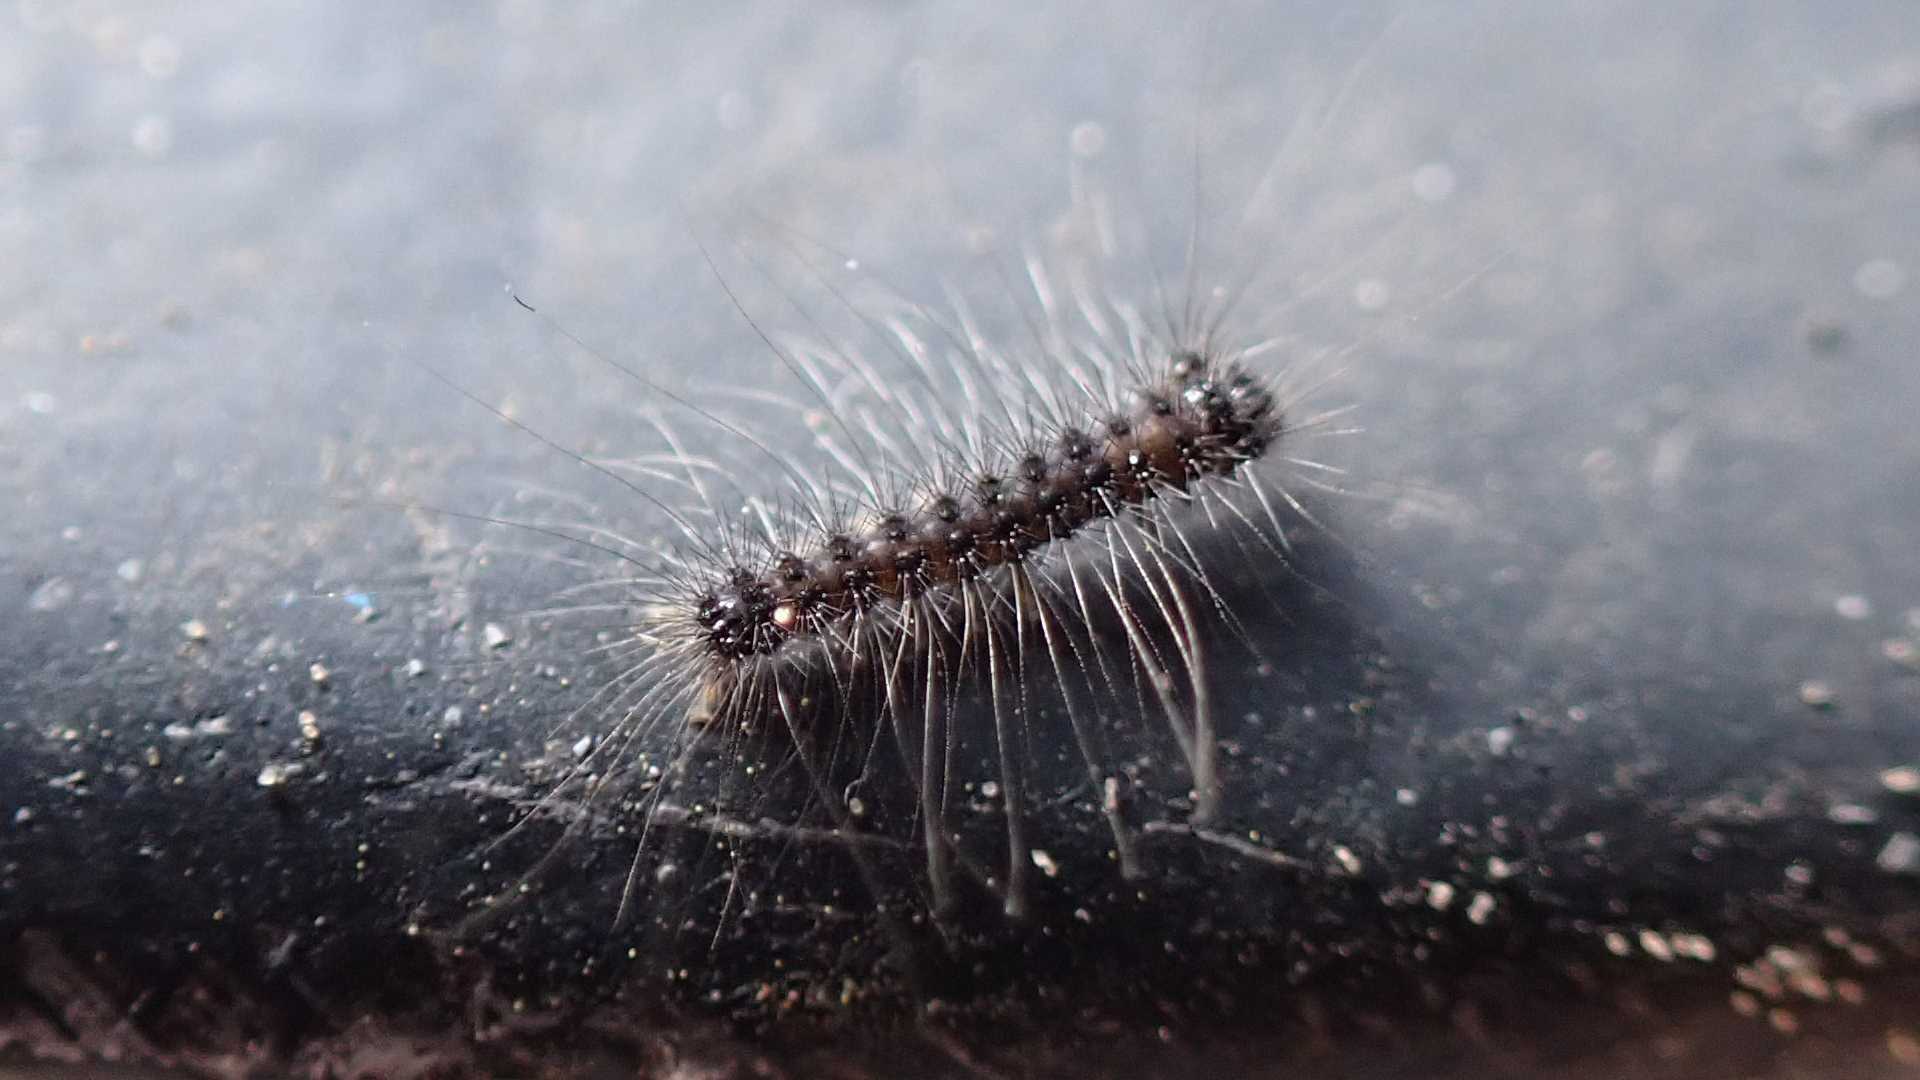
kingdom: Animalia
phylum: Arthropoda
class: Insecta
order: Lepidoptera
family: Erebidae
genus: Lymantria
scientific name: Lymantria dispar
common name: Gypsy moth
